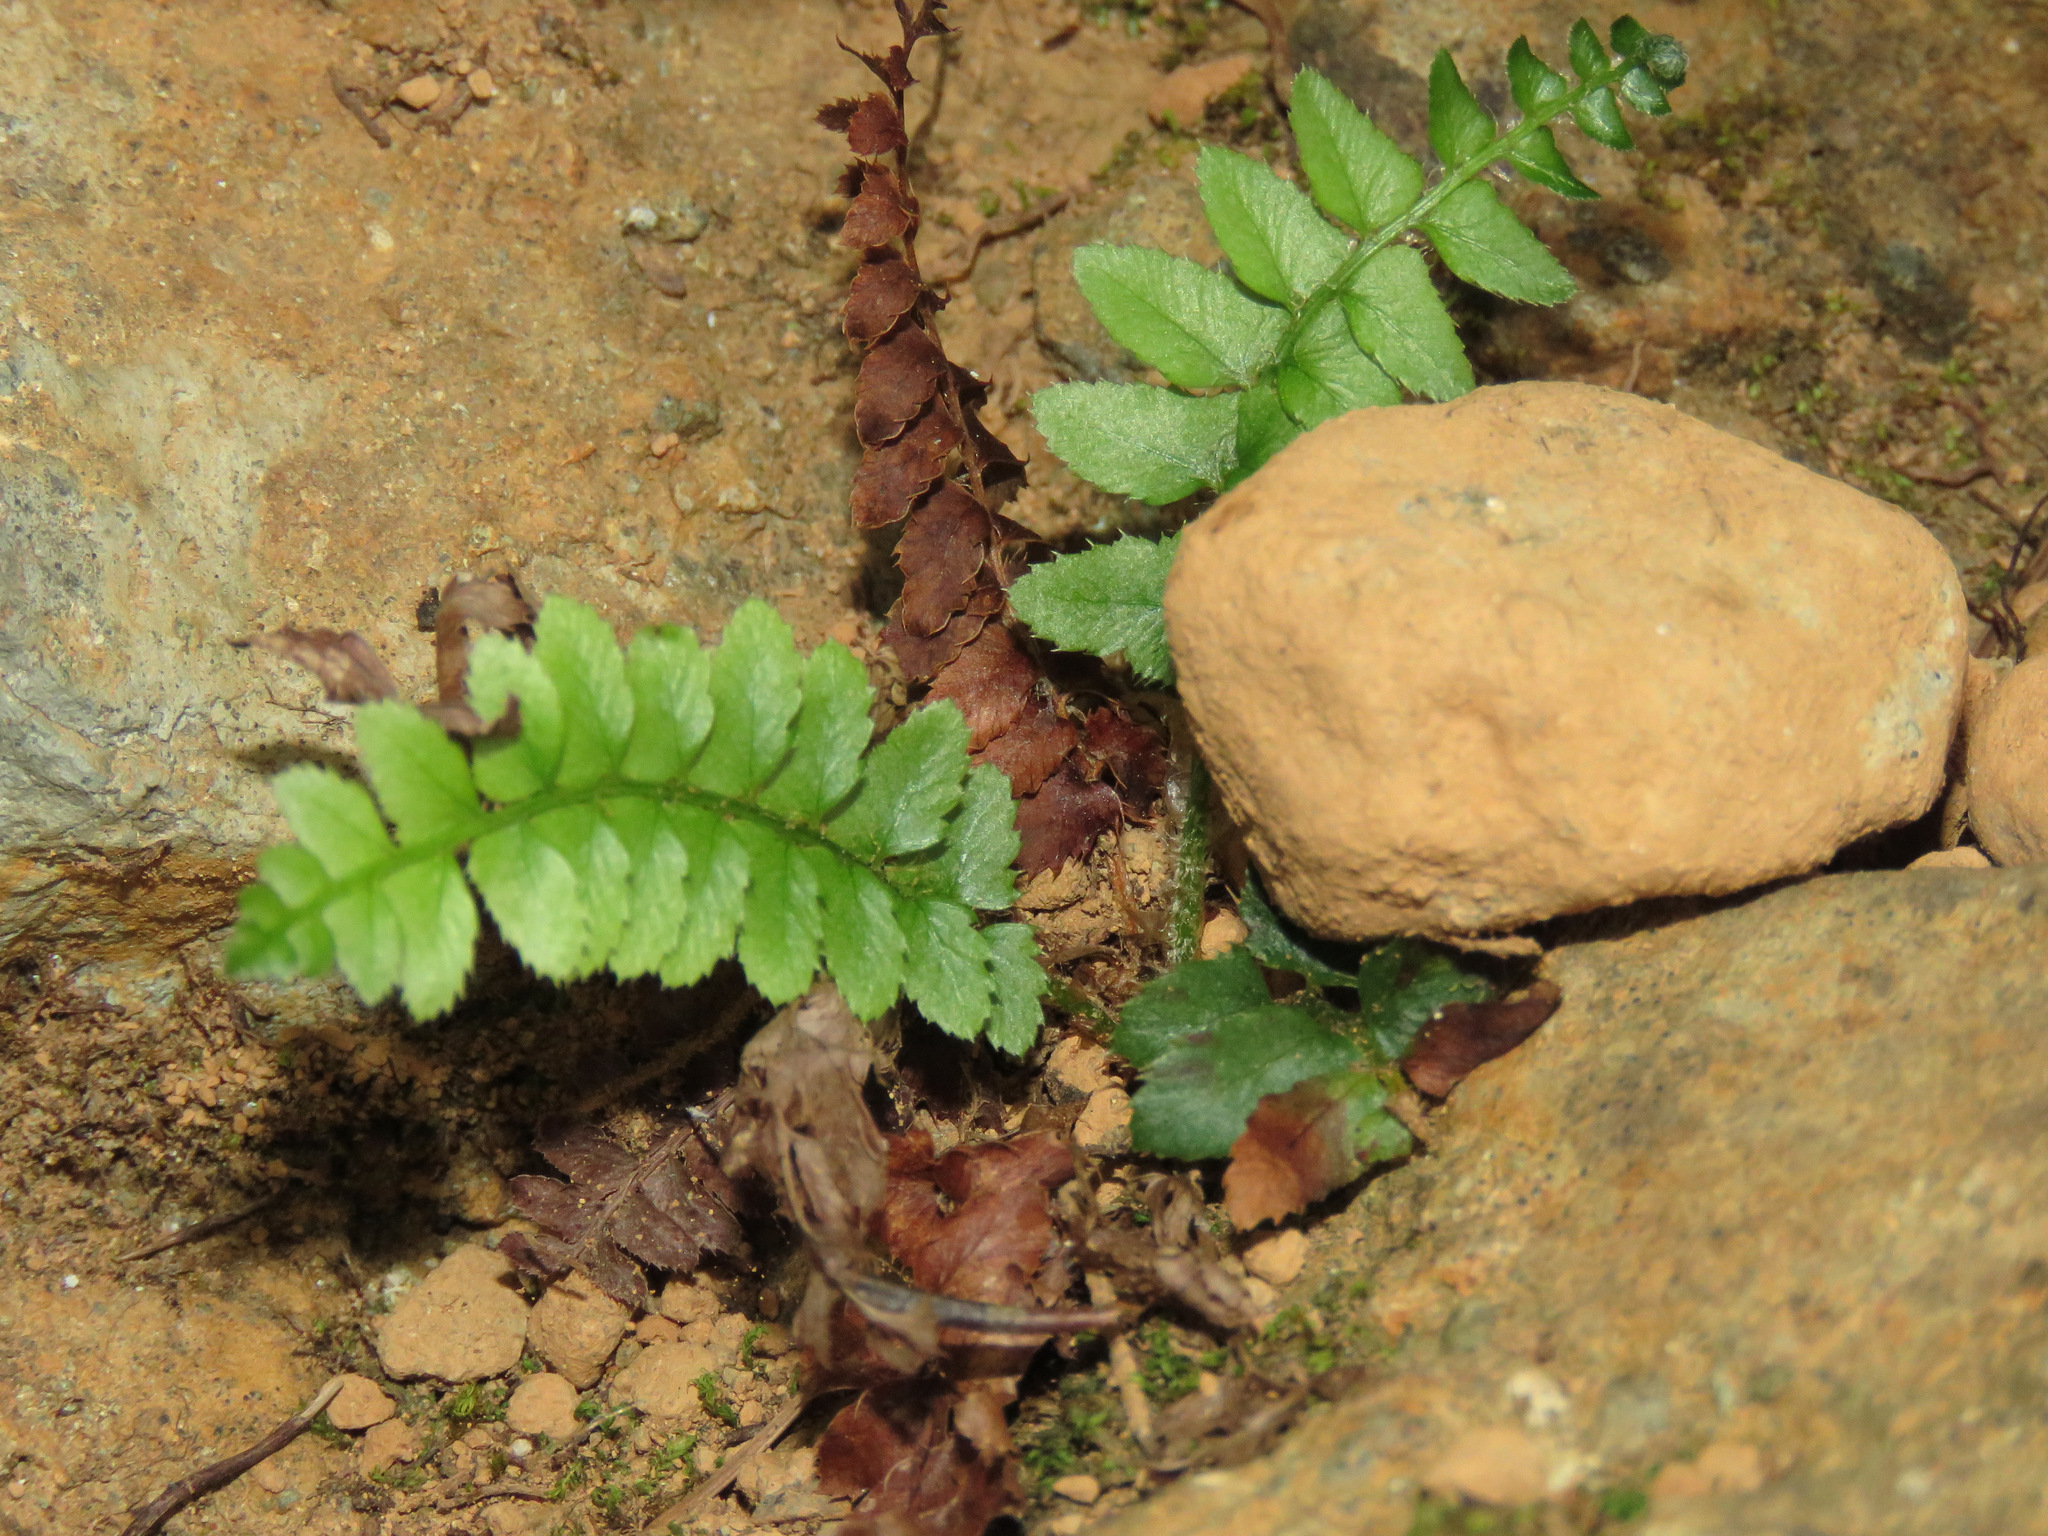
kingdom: Plantae
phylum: Tracheophyta
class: Polypodiopsida
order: Polypodiales
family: Dryopteridaceae
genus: Polystichum
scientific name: Polystichum munitum
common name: Western sword-fern
